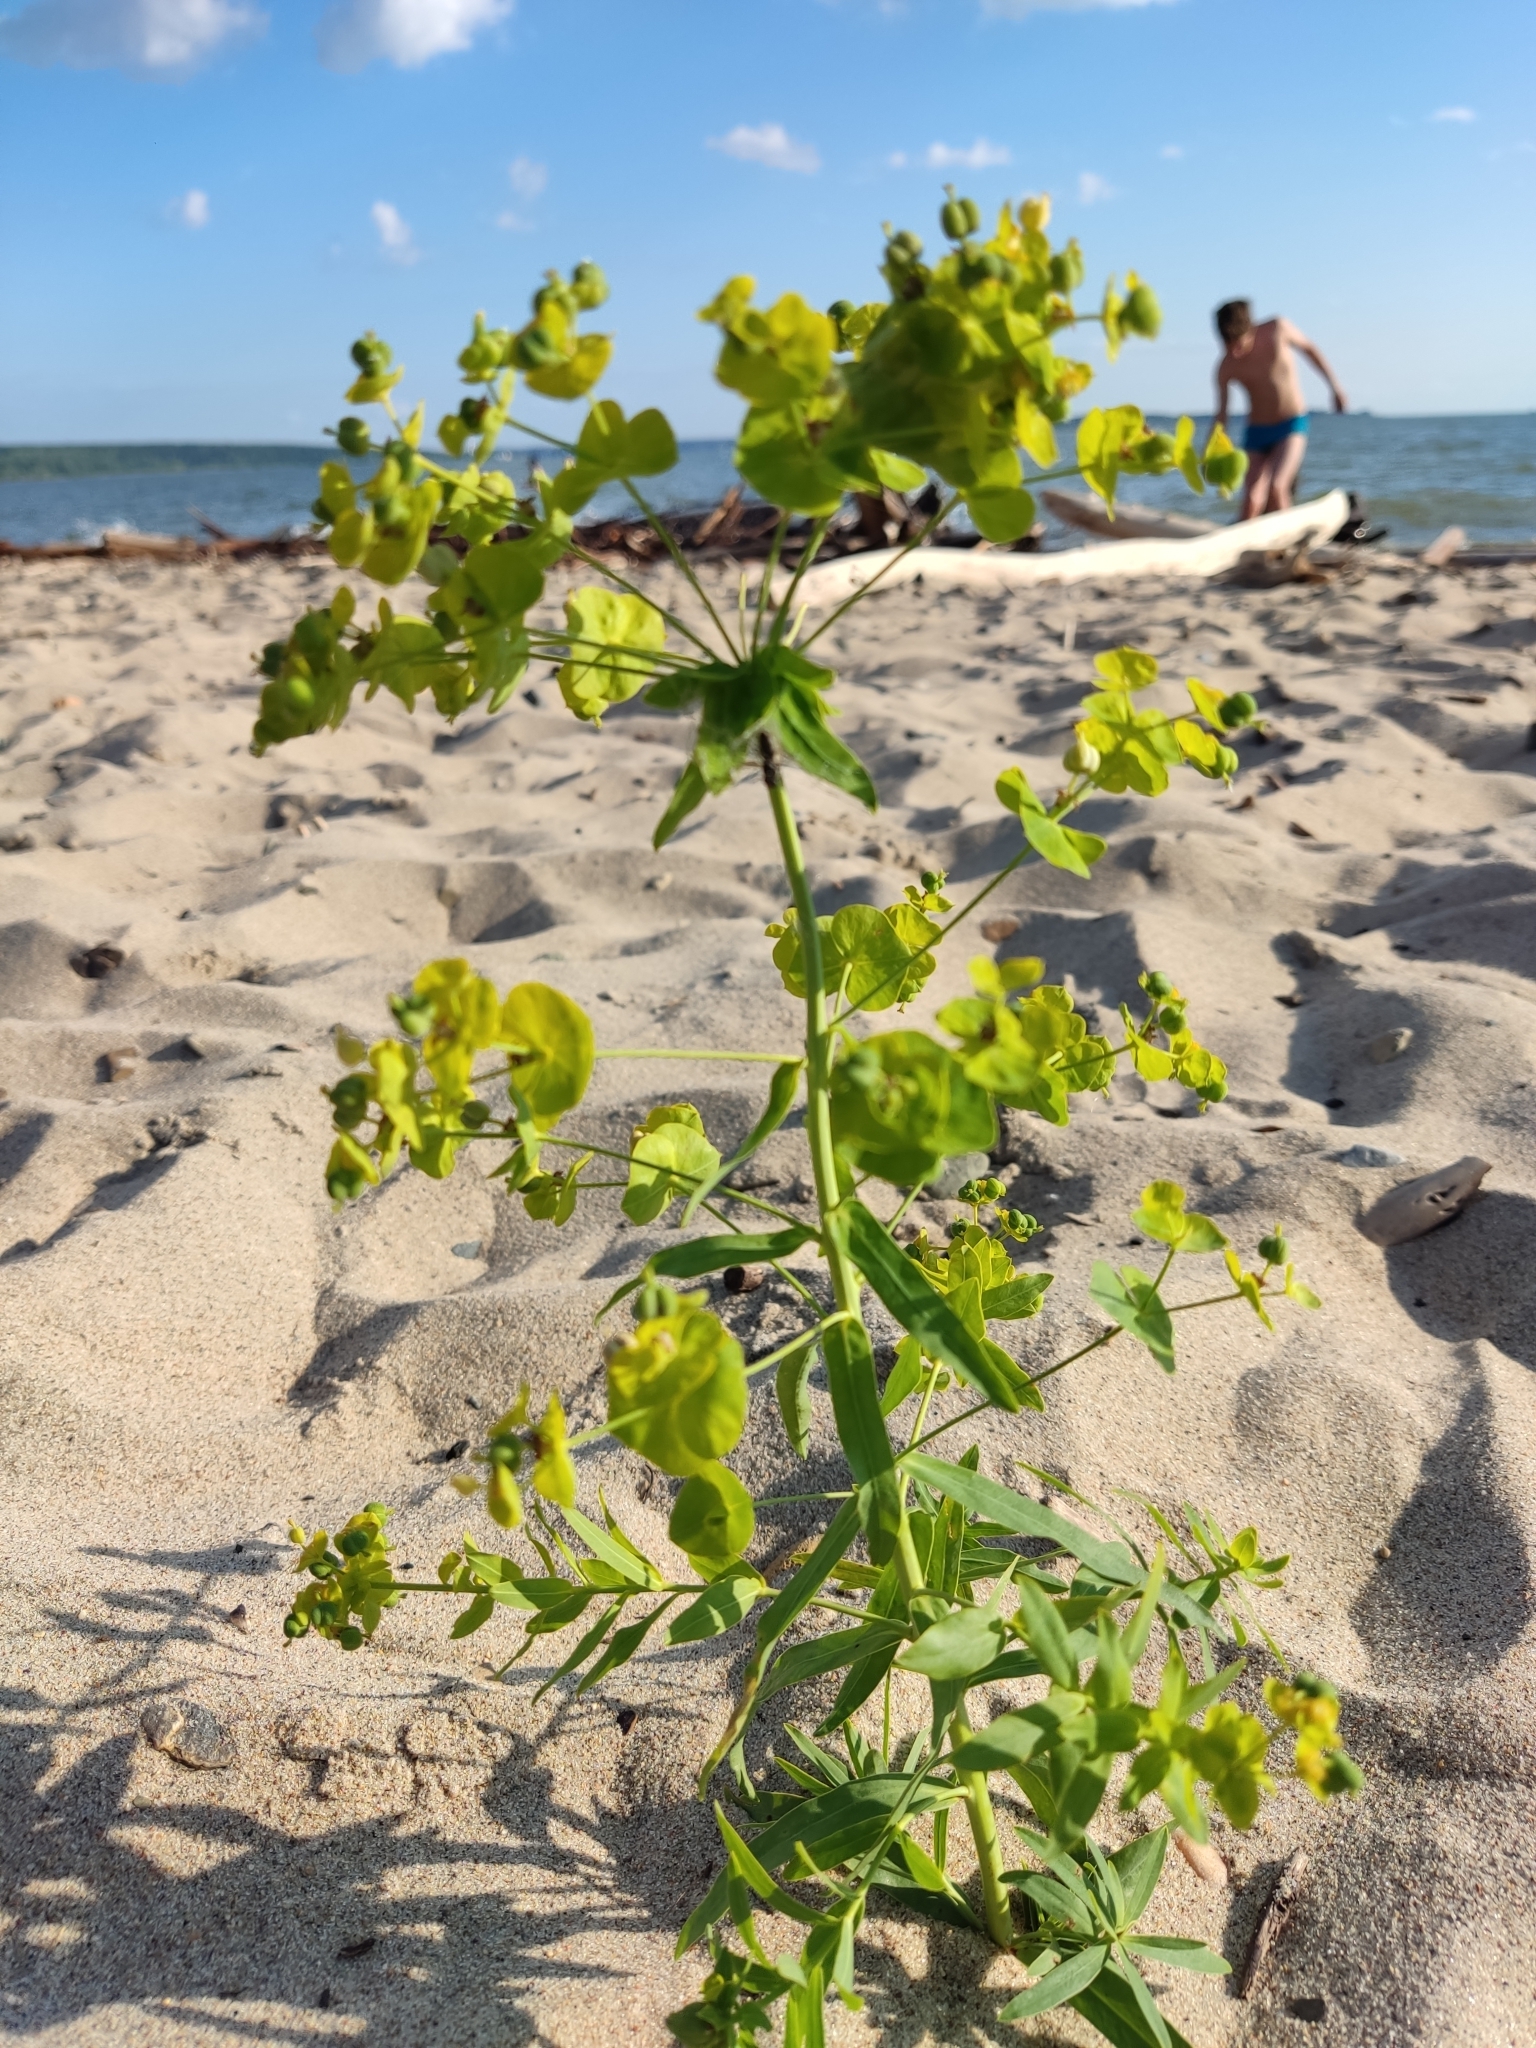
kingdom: Plantae
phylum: Tracheophyta
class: Magnoliopsida
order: Malpighiales
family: Euphorbiaceae
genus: Euphorbia
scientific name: Euphorbia virgata
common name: Leafy spurge
